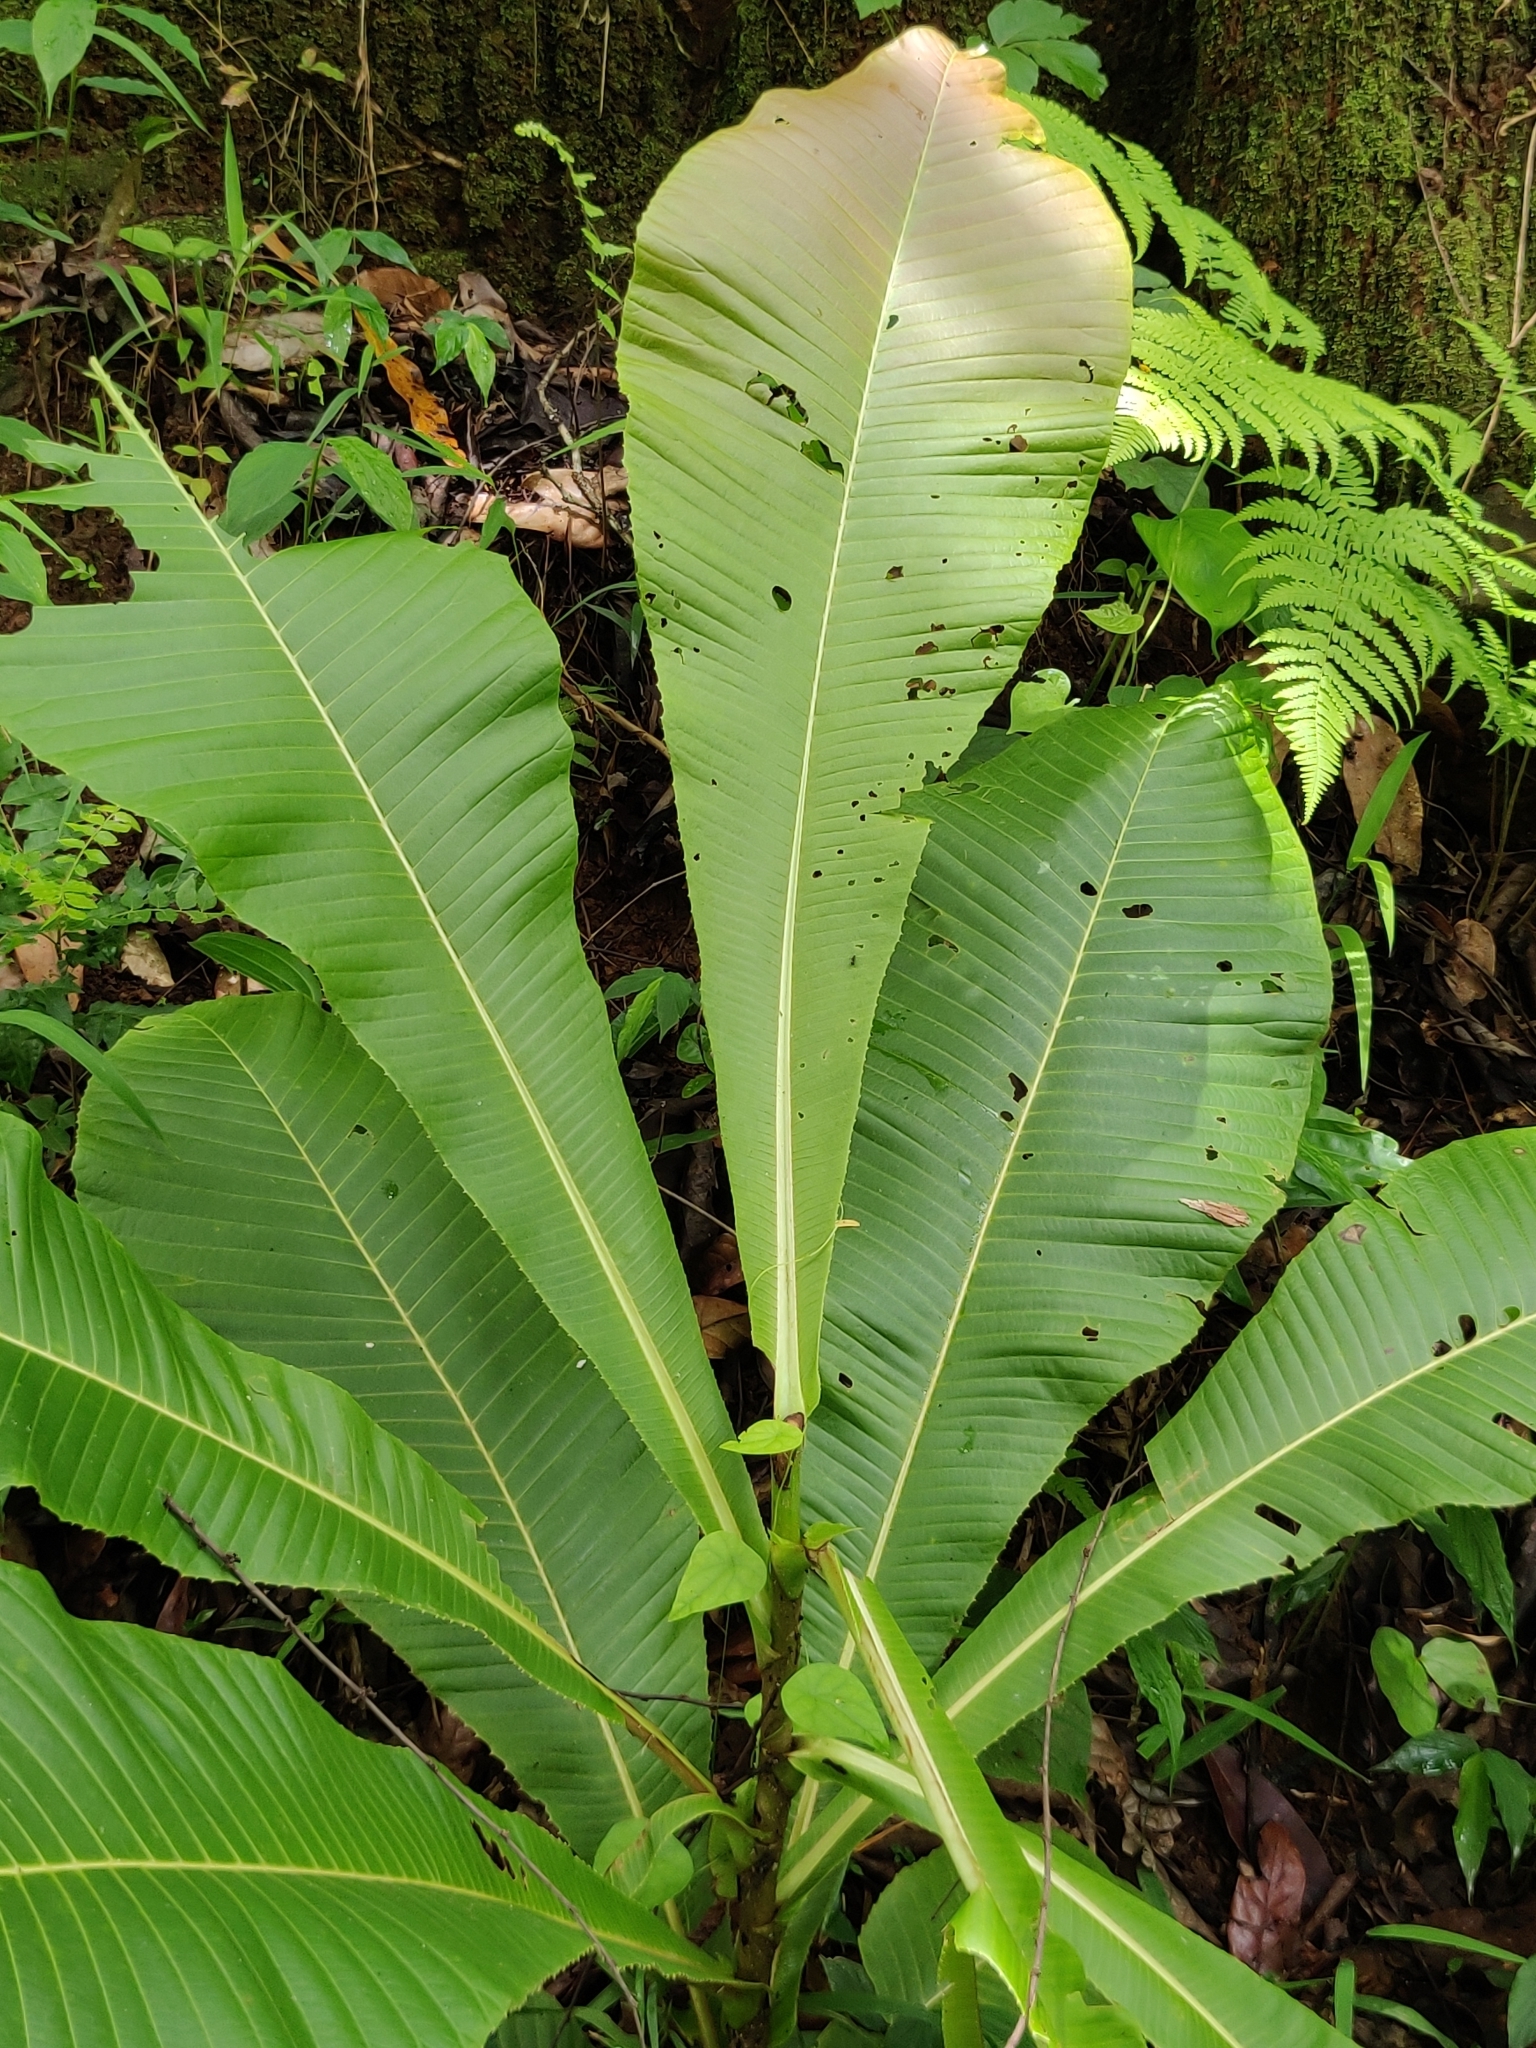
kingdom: Plantae
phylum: Tracheophyta
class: Magnoliopsida
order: Dilleniales
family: Dilleniaceae
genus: Dillenia
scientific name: Dillenia pentagyna
